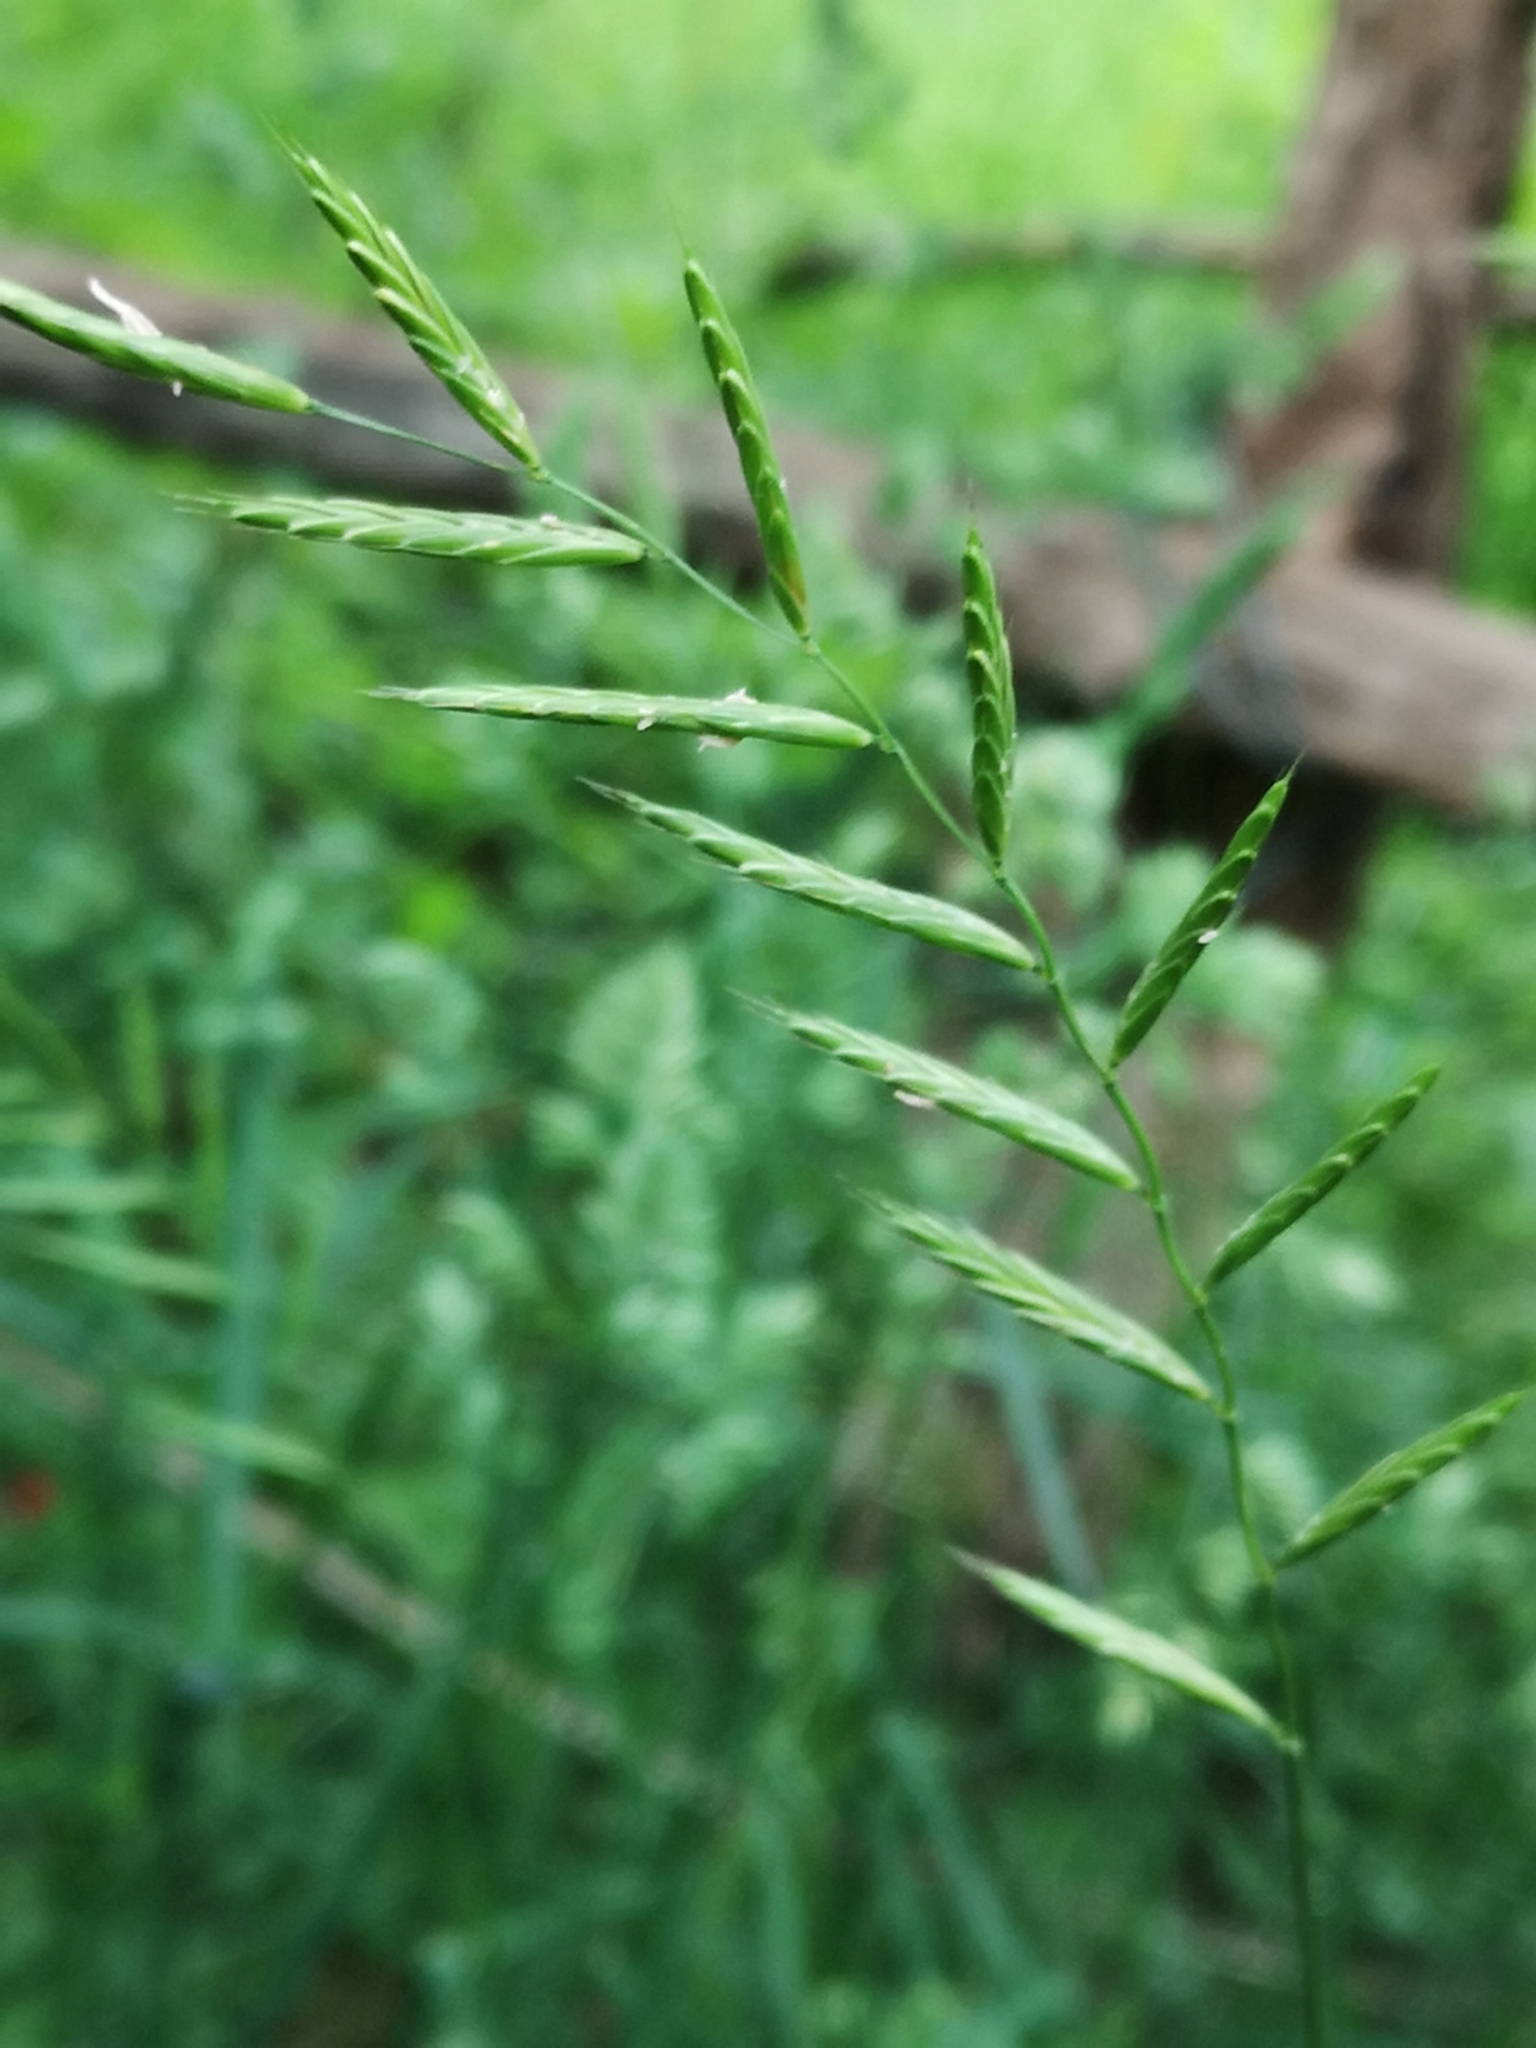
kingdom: Plantae
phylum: Tracheophyta
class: Liliopsida
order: Poales
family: Poaceae
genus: Brachypodium
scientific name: Brachypodium pinnatum
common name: Tor grass
